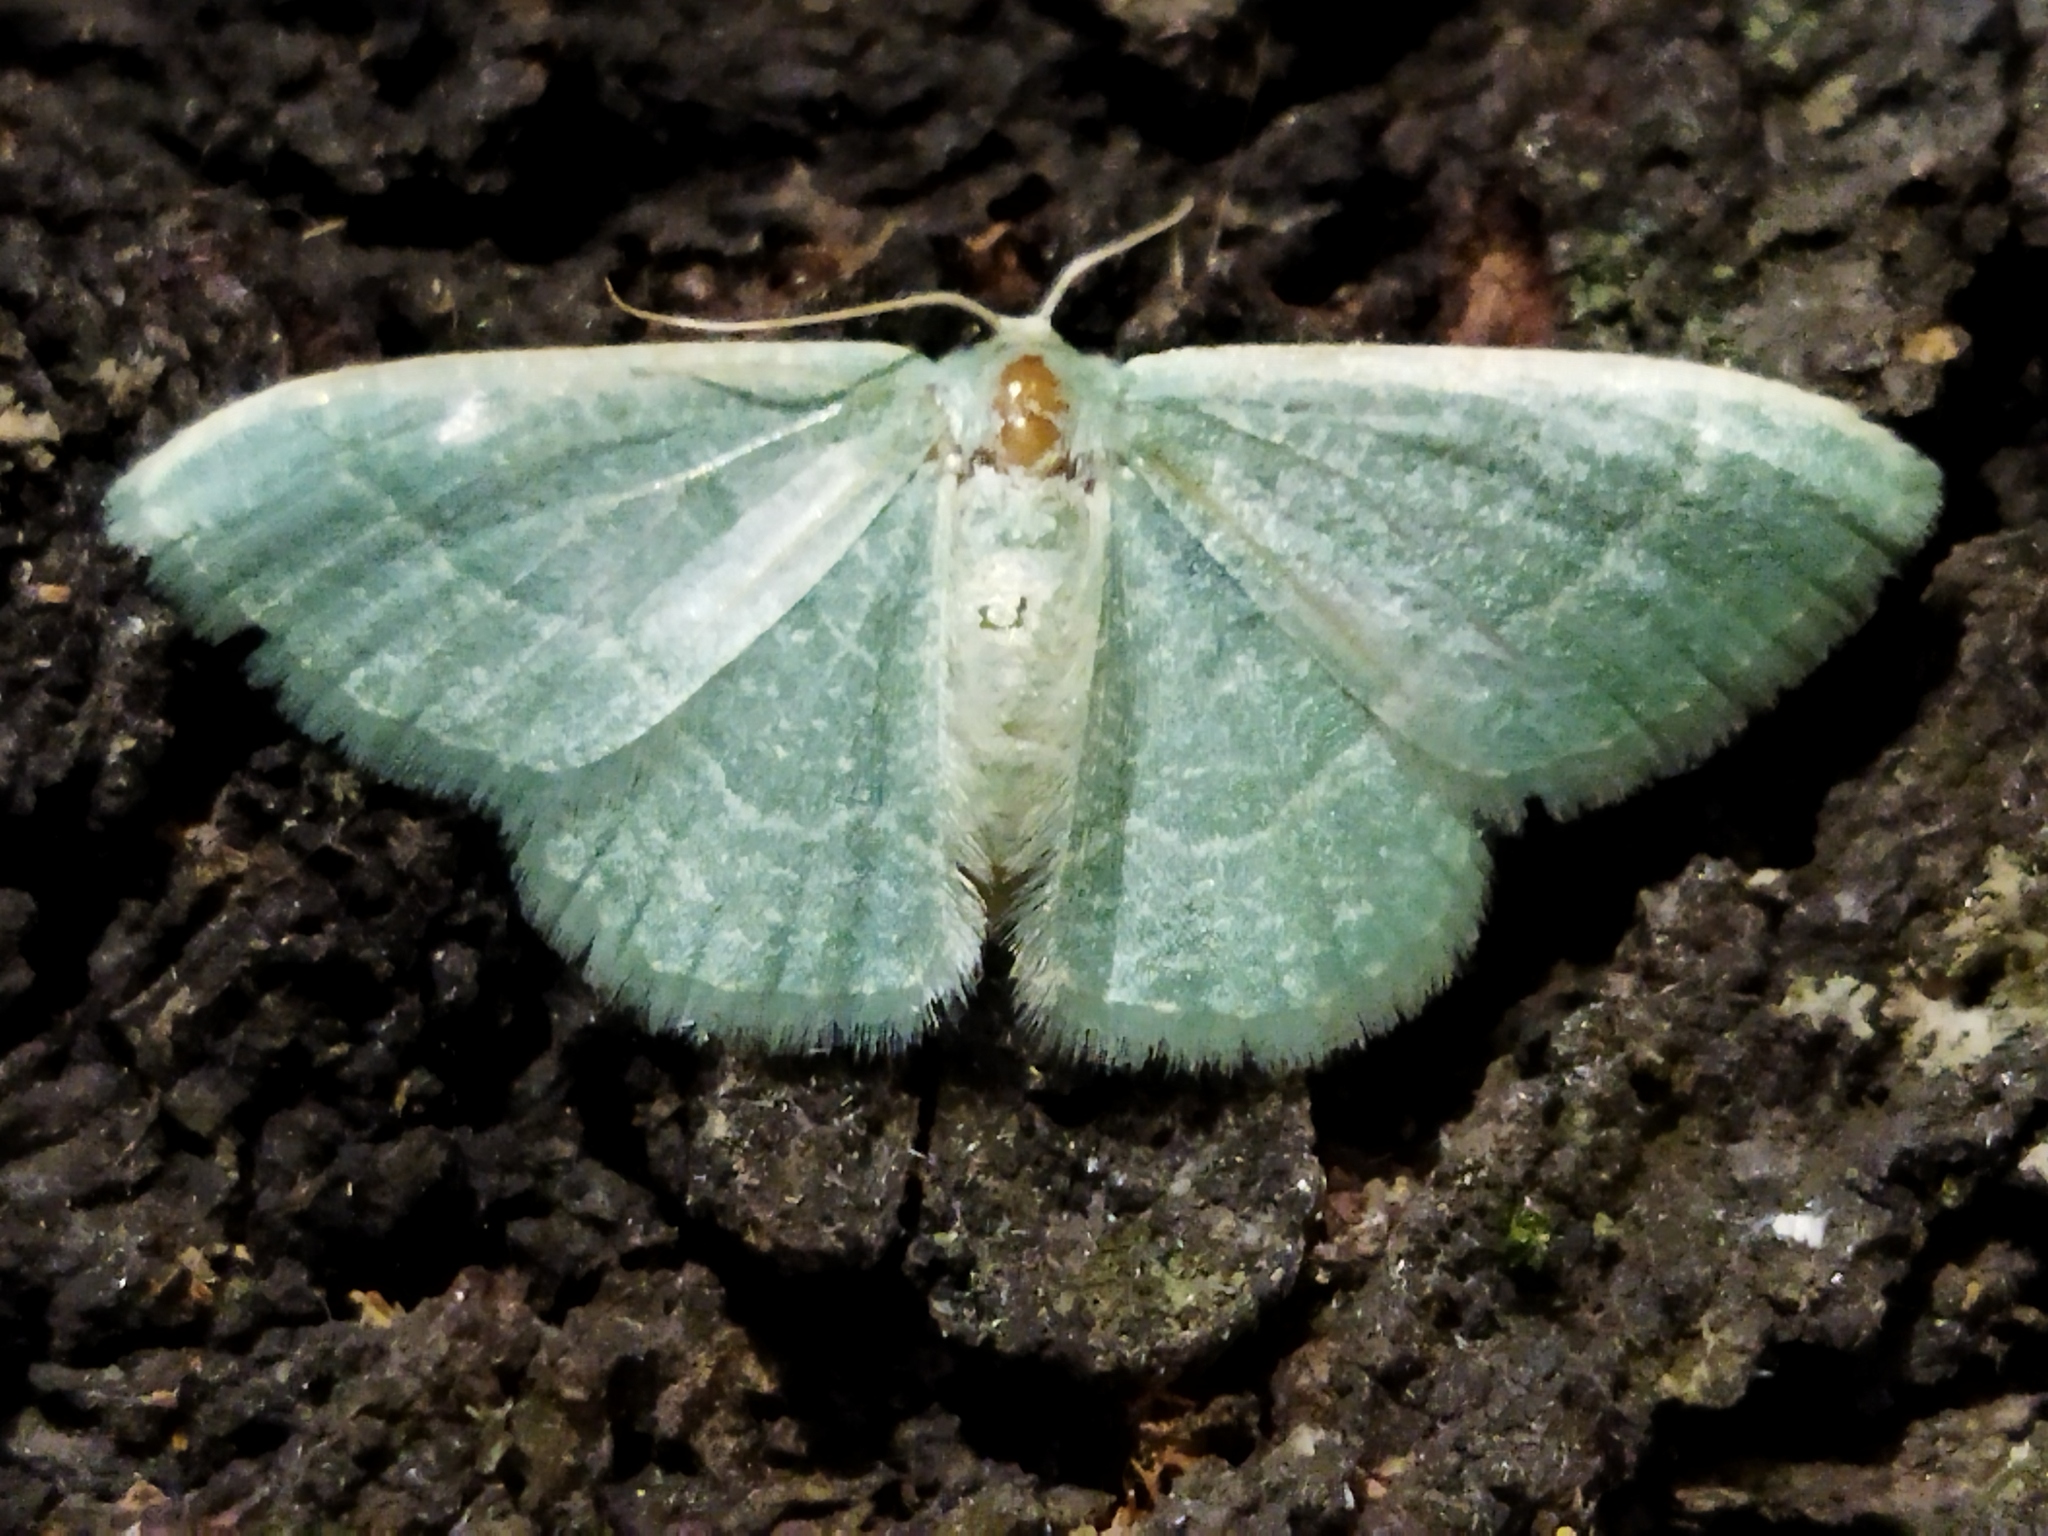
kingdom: Animalia
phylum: Arthropoda
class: Insecta
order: Lepidoptera
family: Geometridae
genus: Chlorissa
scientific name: Chlorissa etruscaria
